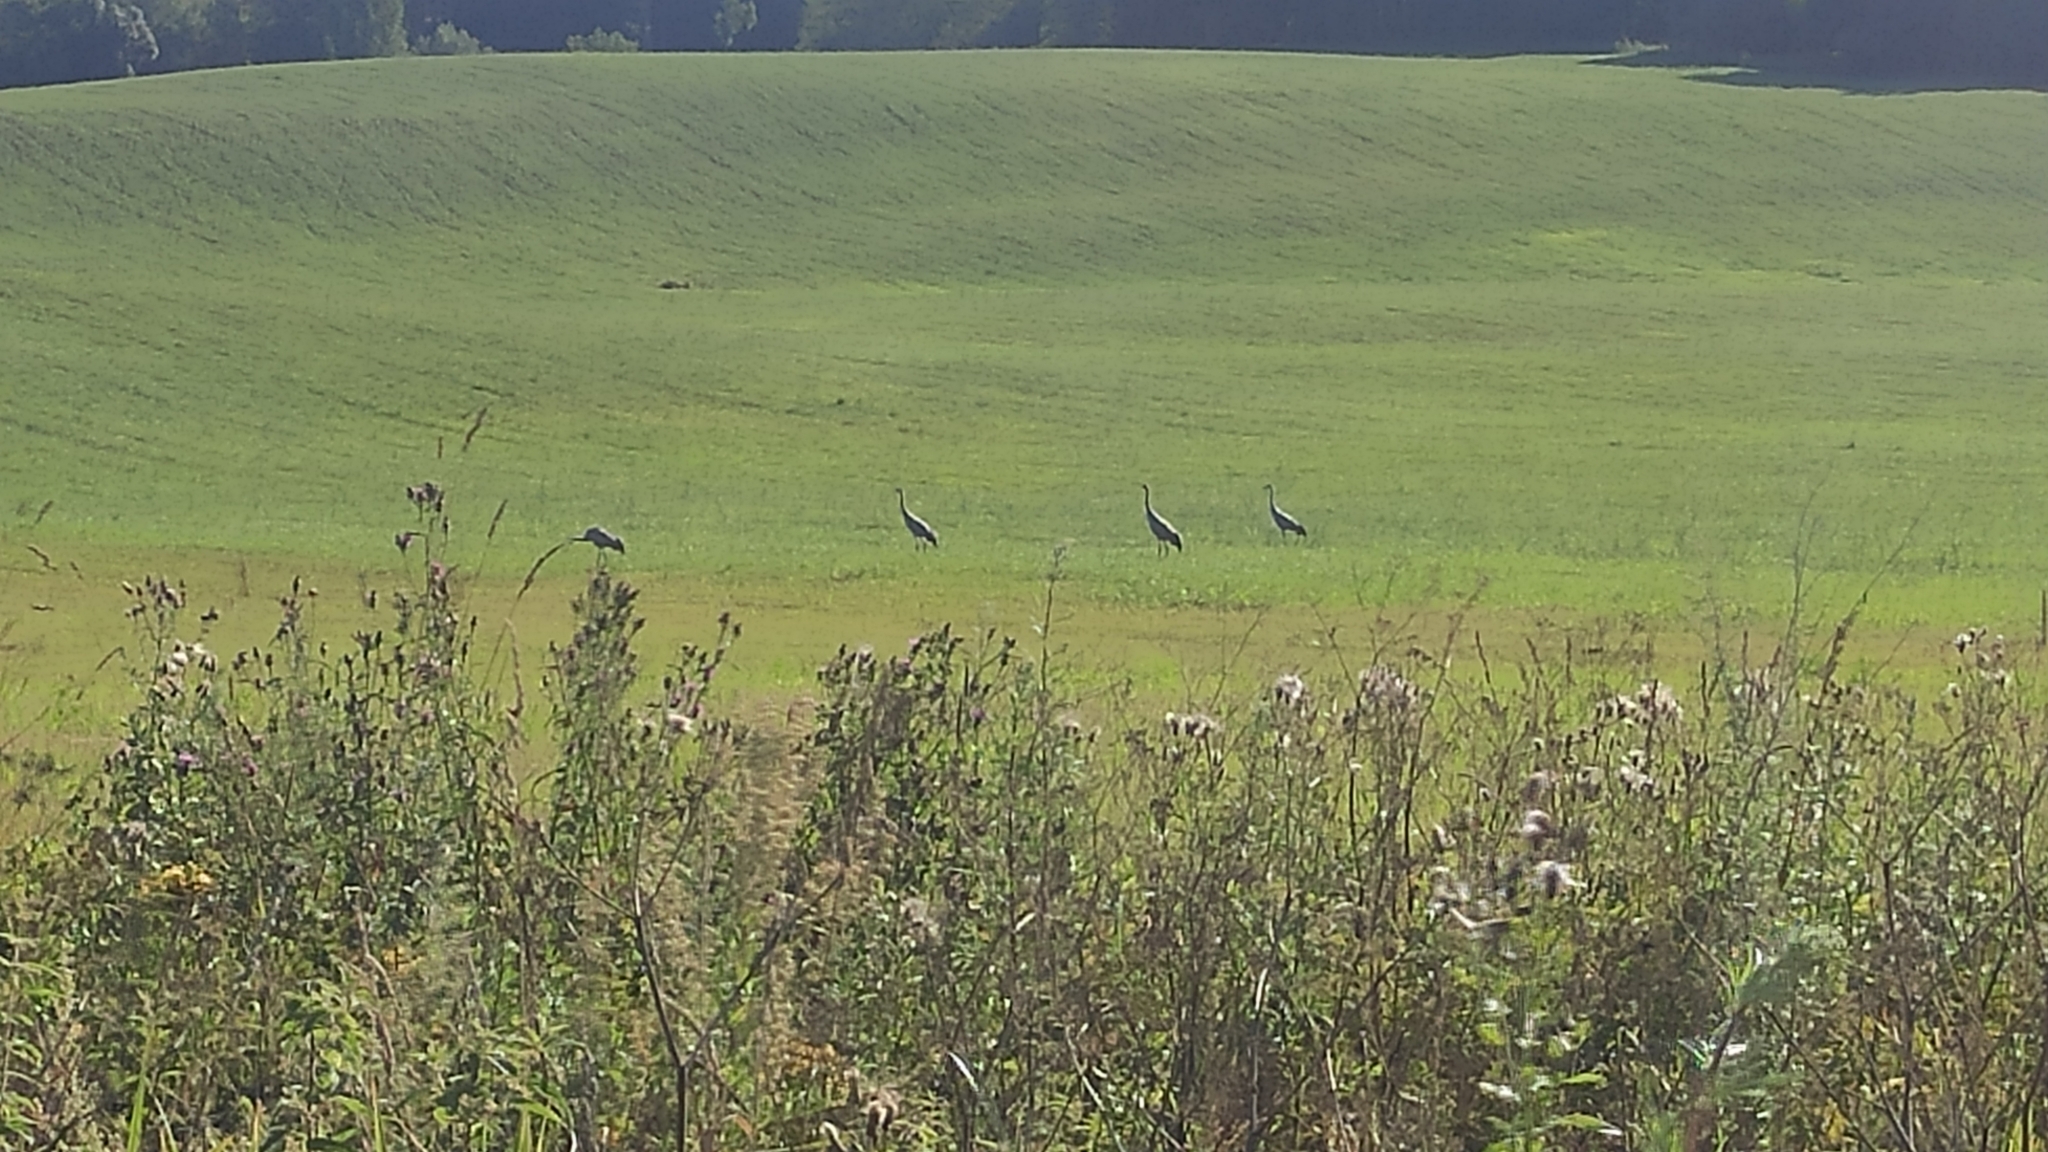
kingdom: Animalia
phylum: Chordata
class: Aves
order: Gruiformes
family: Gruidae
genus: Grus
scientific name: Grus grus
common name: Common crane
